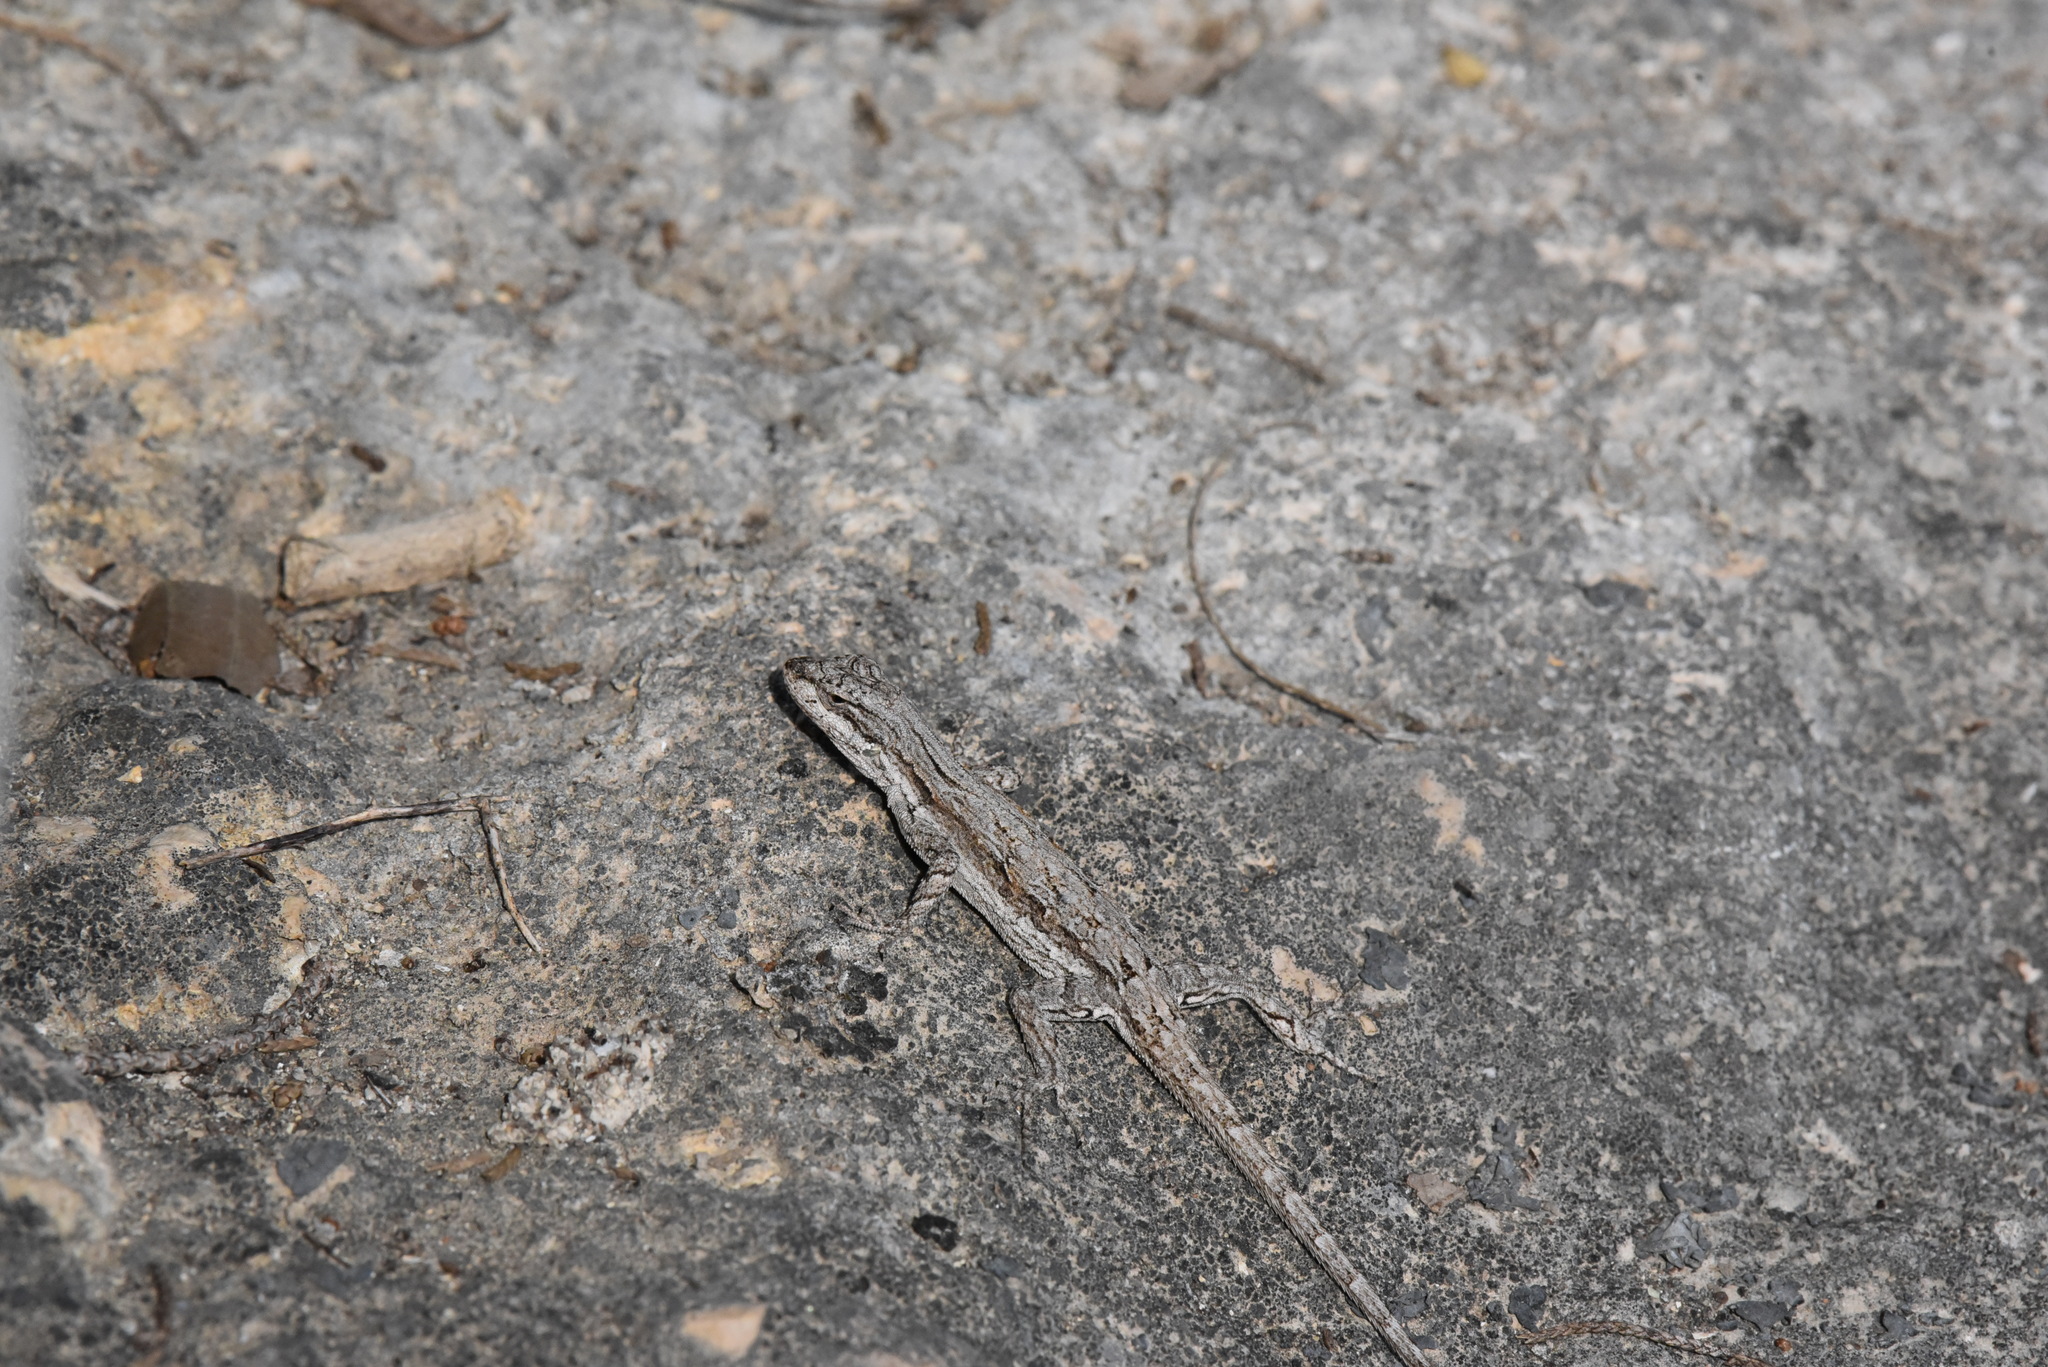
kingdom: Animalia
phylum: Chordata
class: Squamata
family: Phrynosomatidae
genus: Urosaurus
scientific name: Urosaurus ornatus
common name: Ornate tree lizard
